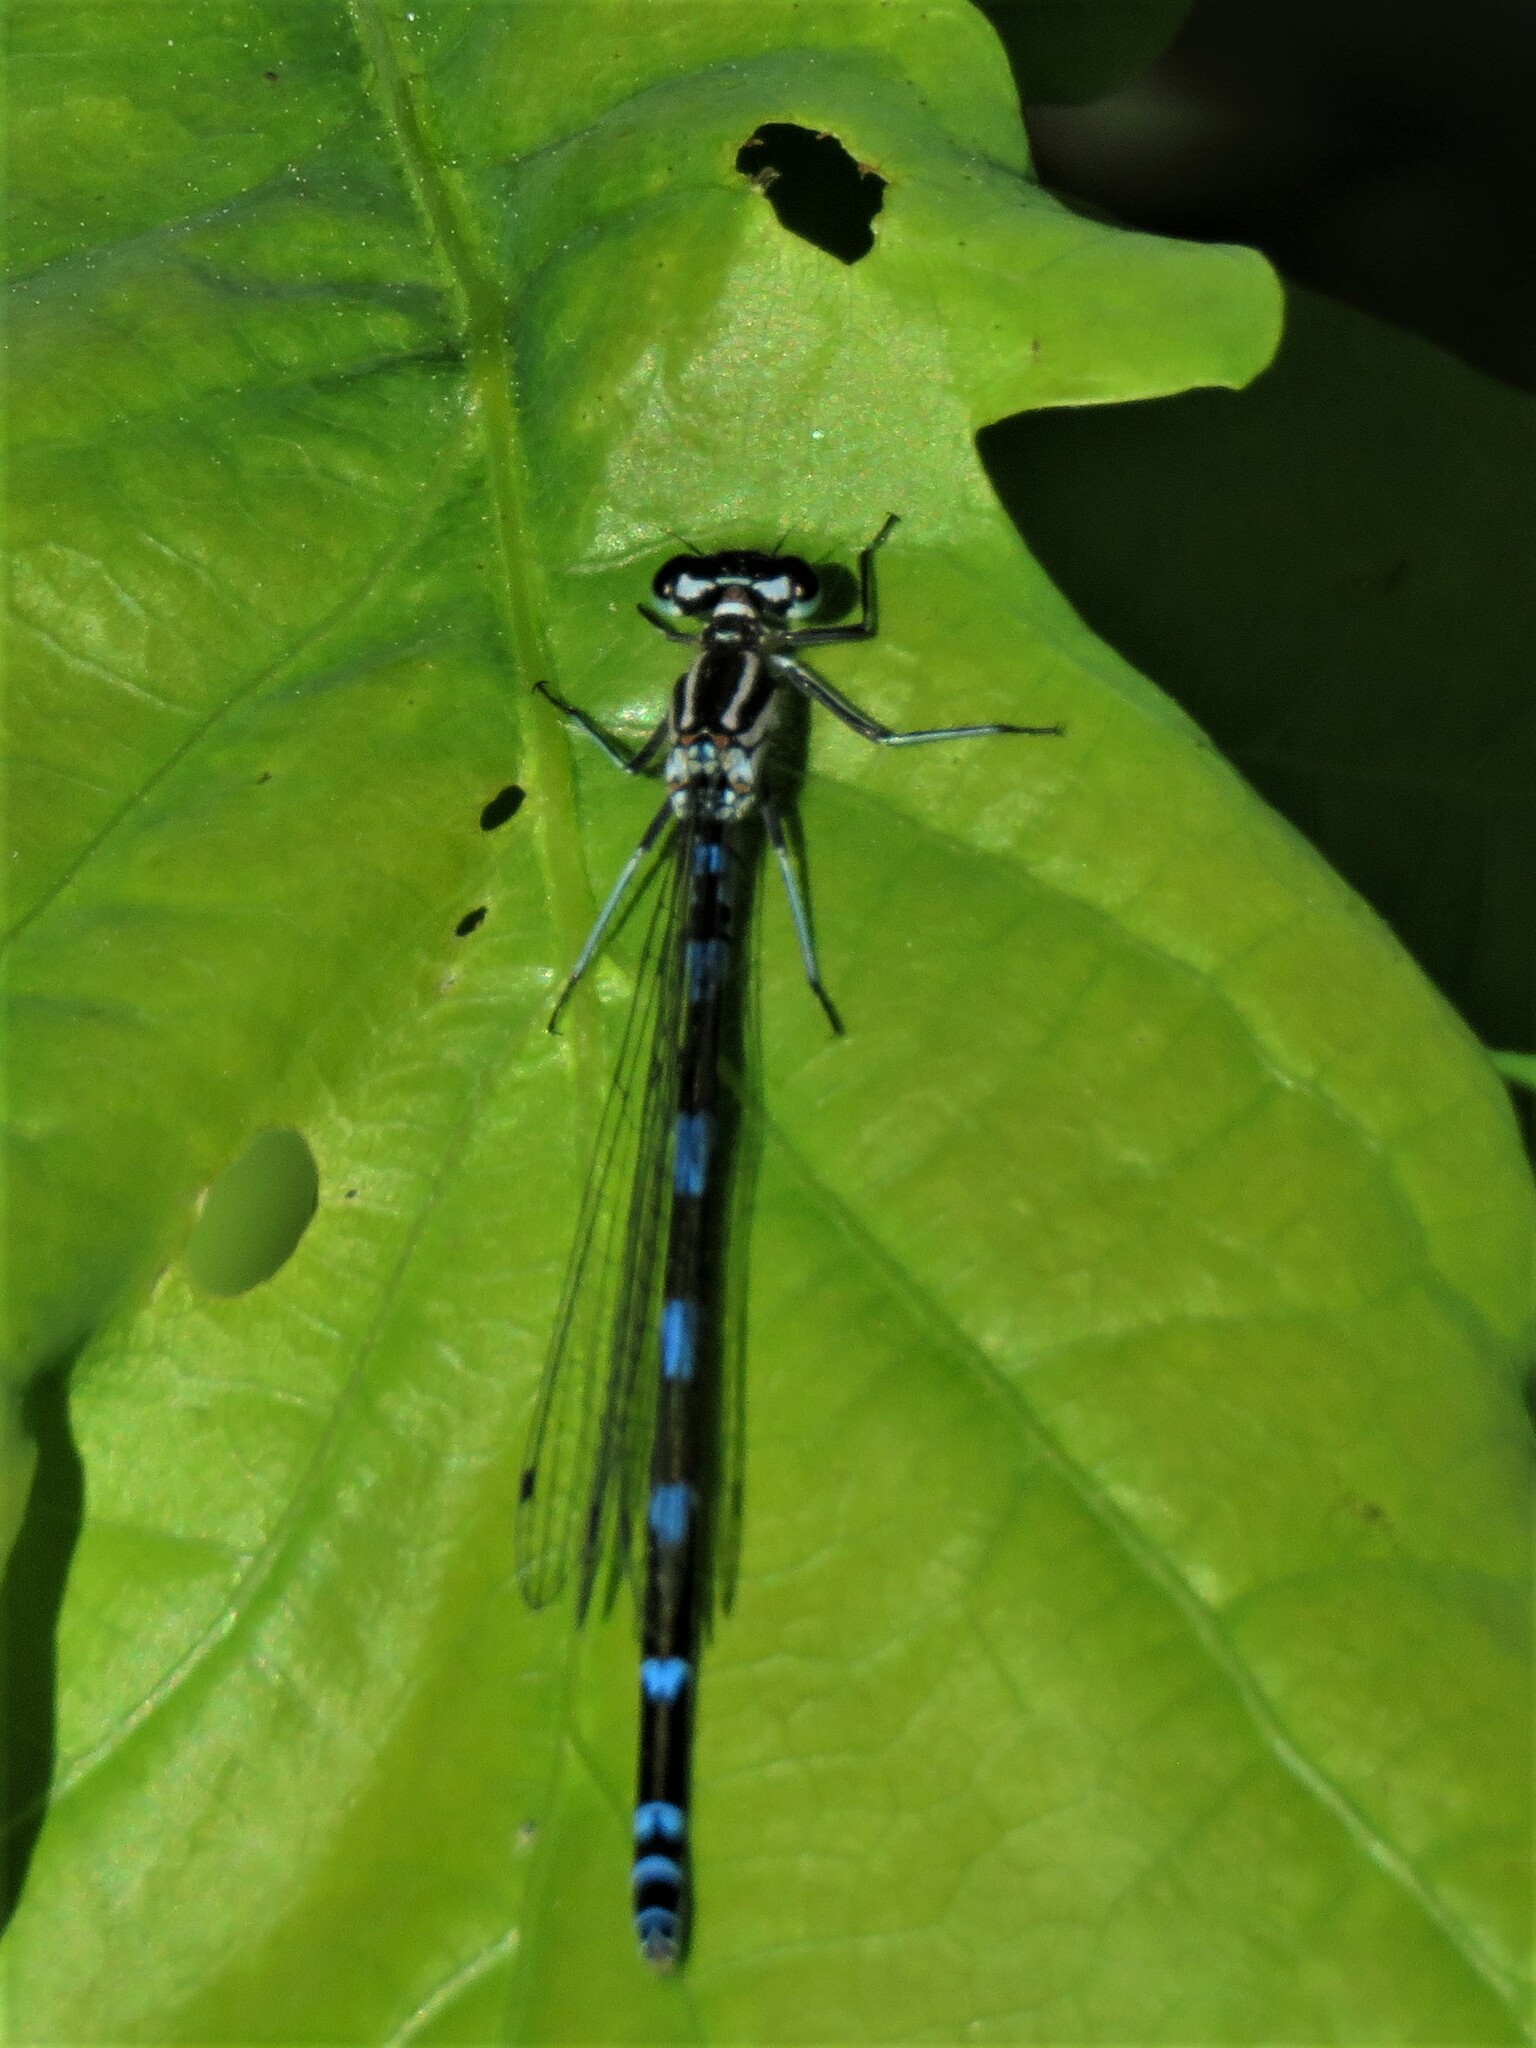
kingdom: Animalia
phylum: Arthropoda
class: Insecta
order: Odonata
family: Coenagrionidae
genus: Coenagrion
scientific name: Coenagrion pulchellum
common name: Variable bluet
